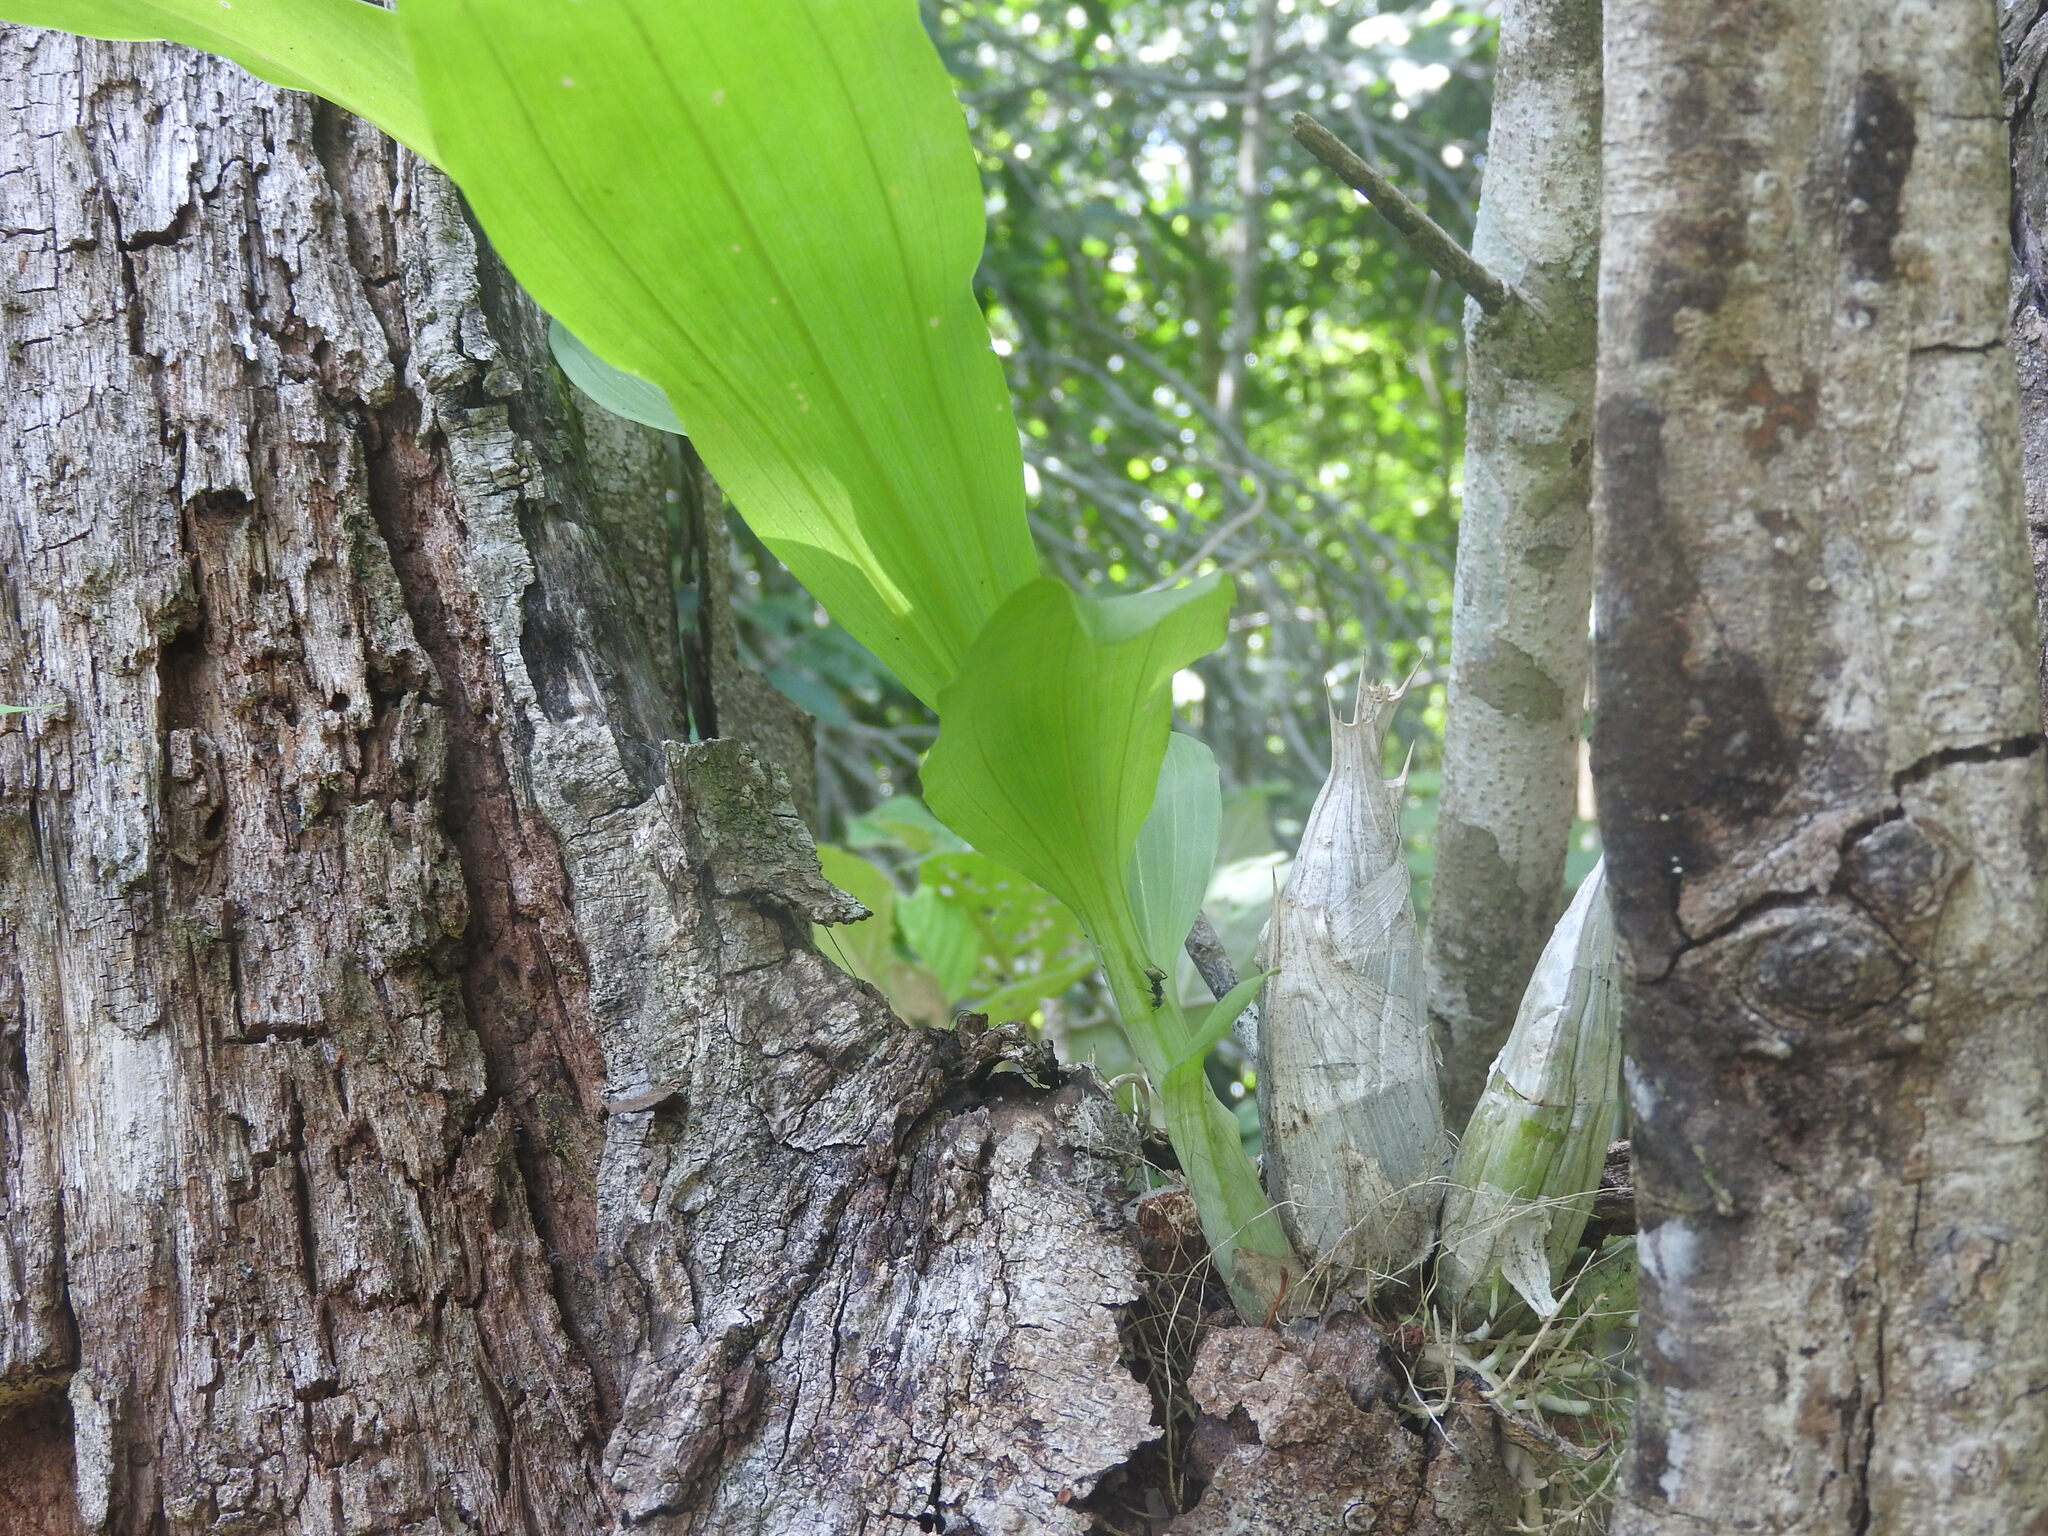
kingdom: Plantae
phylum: Tracheophyta
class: Liliopsida
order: Asparagales
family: Orchidaceae
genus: Catasetum
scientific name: Catasetum integerrimum
